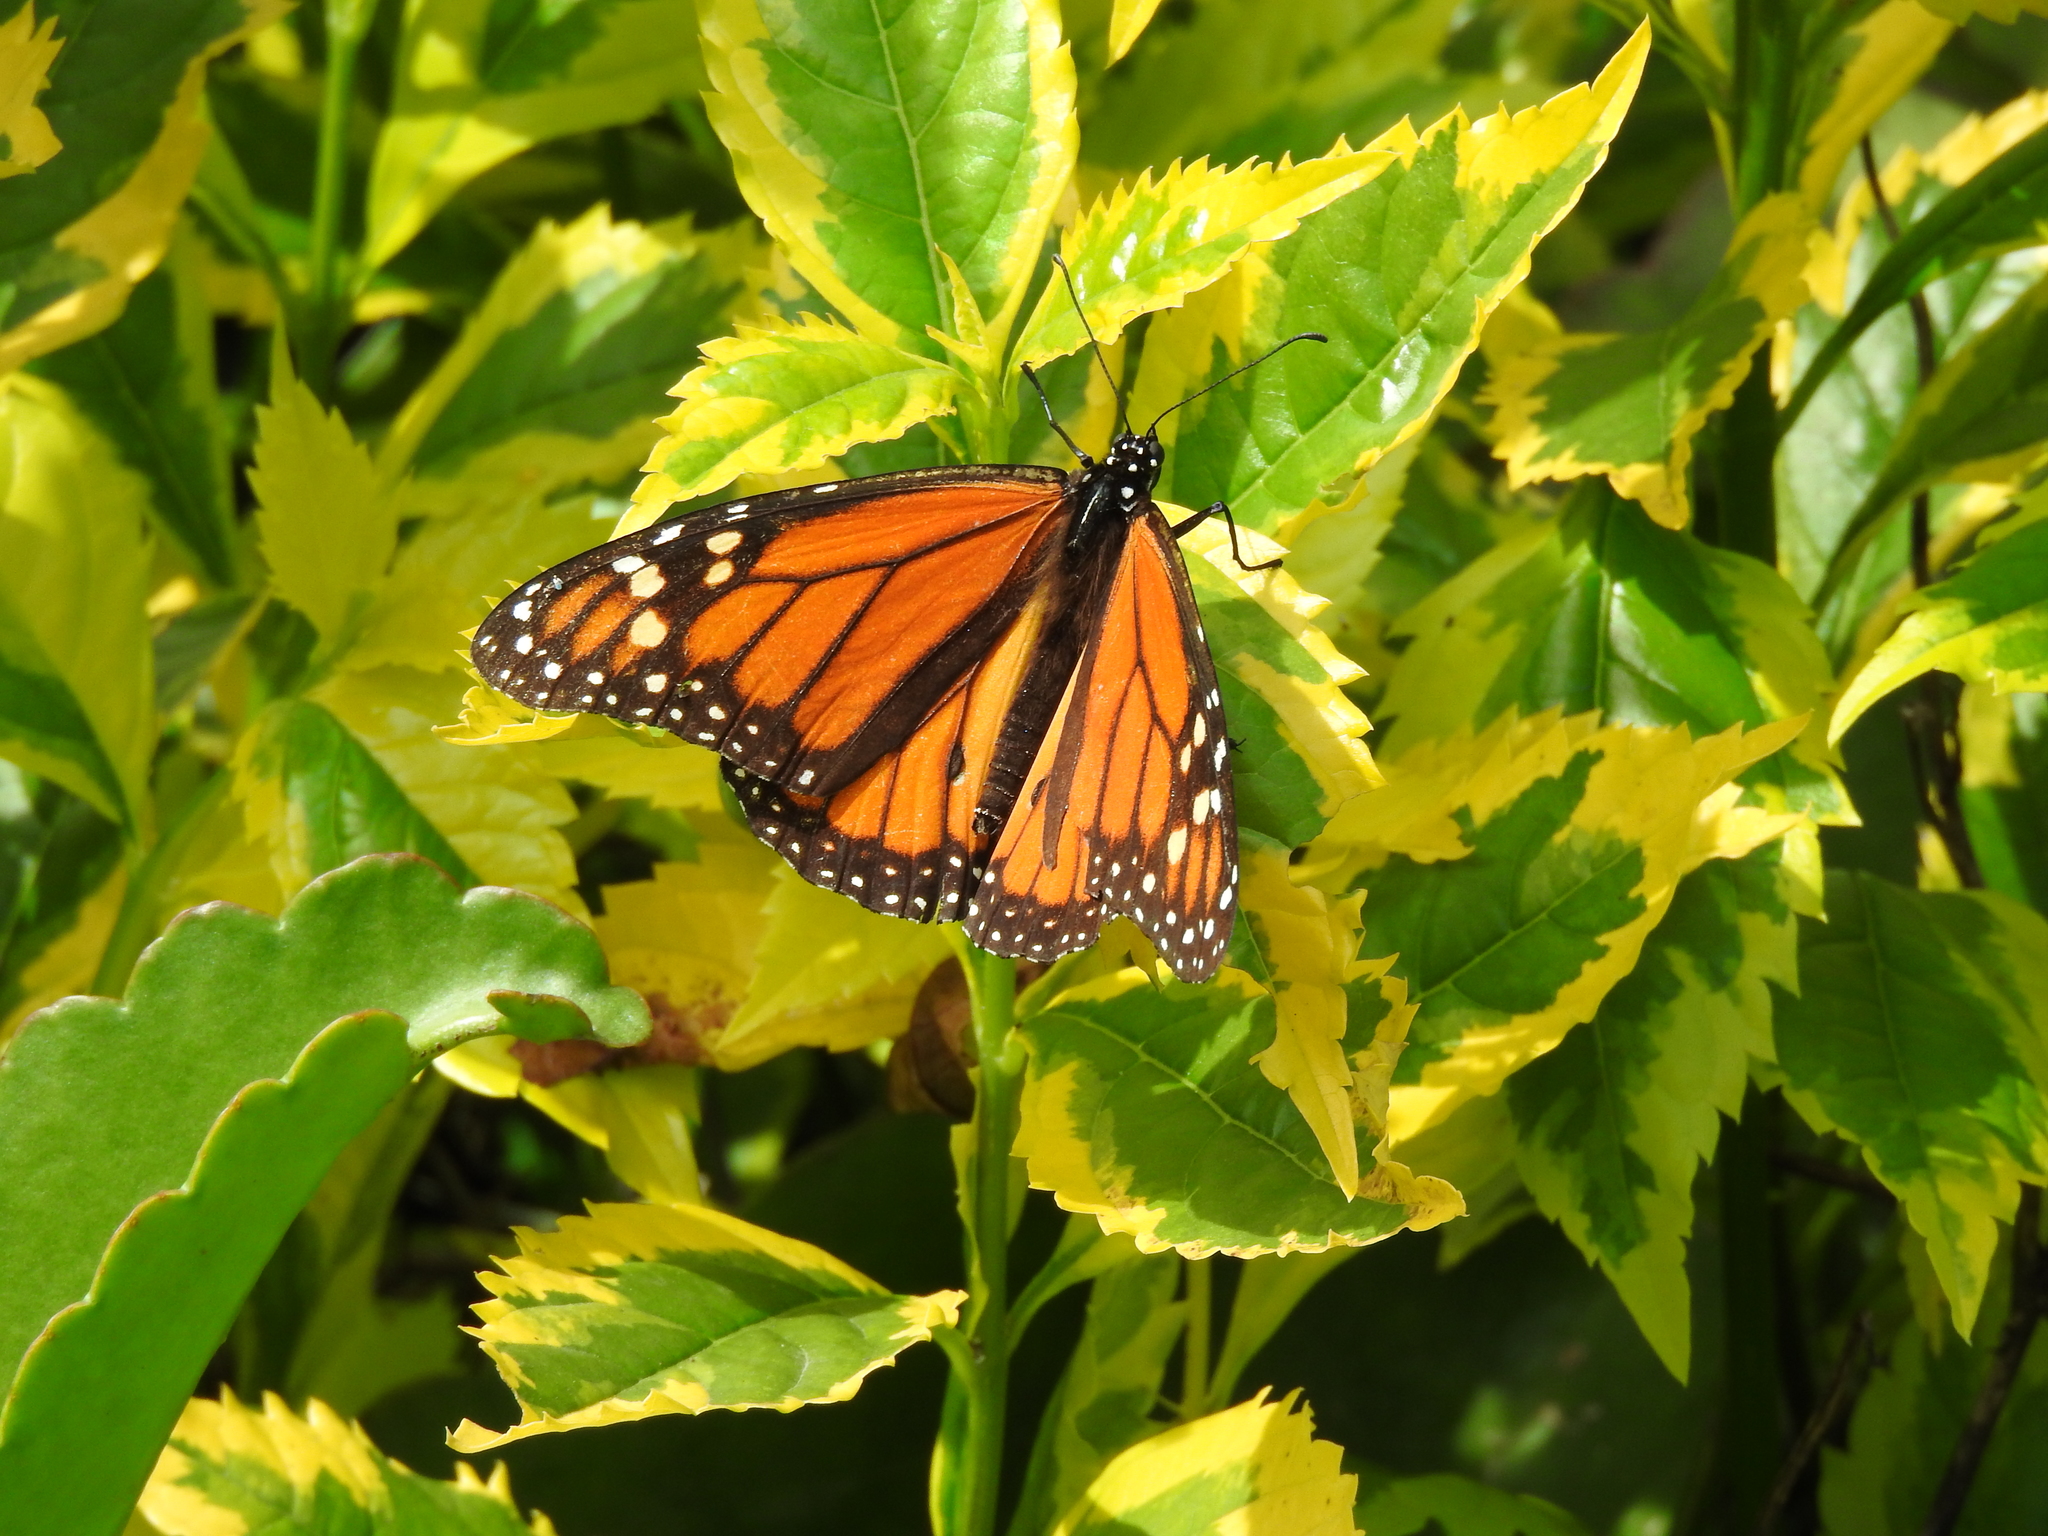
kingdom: Animalia
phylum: Arthropoda
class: Insecta
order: Lepidoptera
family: Nymphalidae
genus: Danaus
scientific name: Danaus plexippus
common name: Monarch
